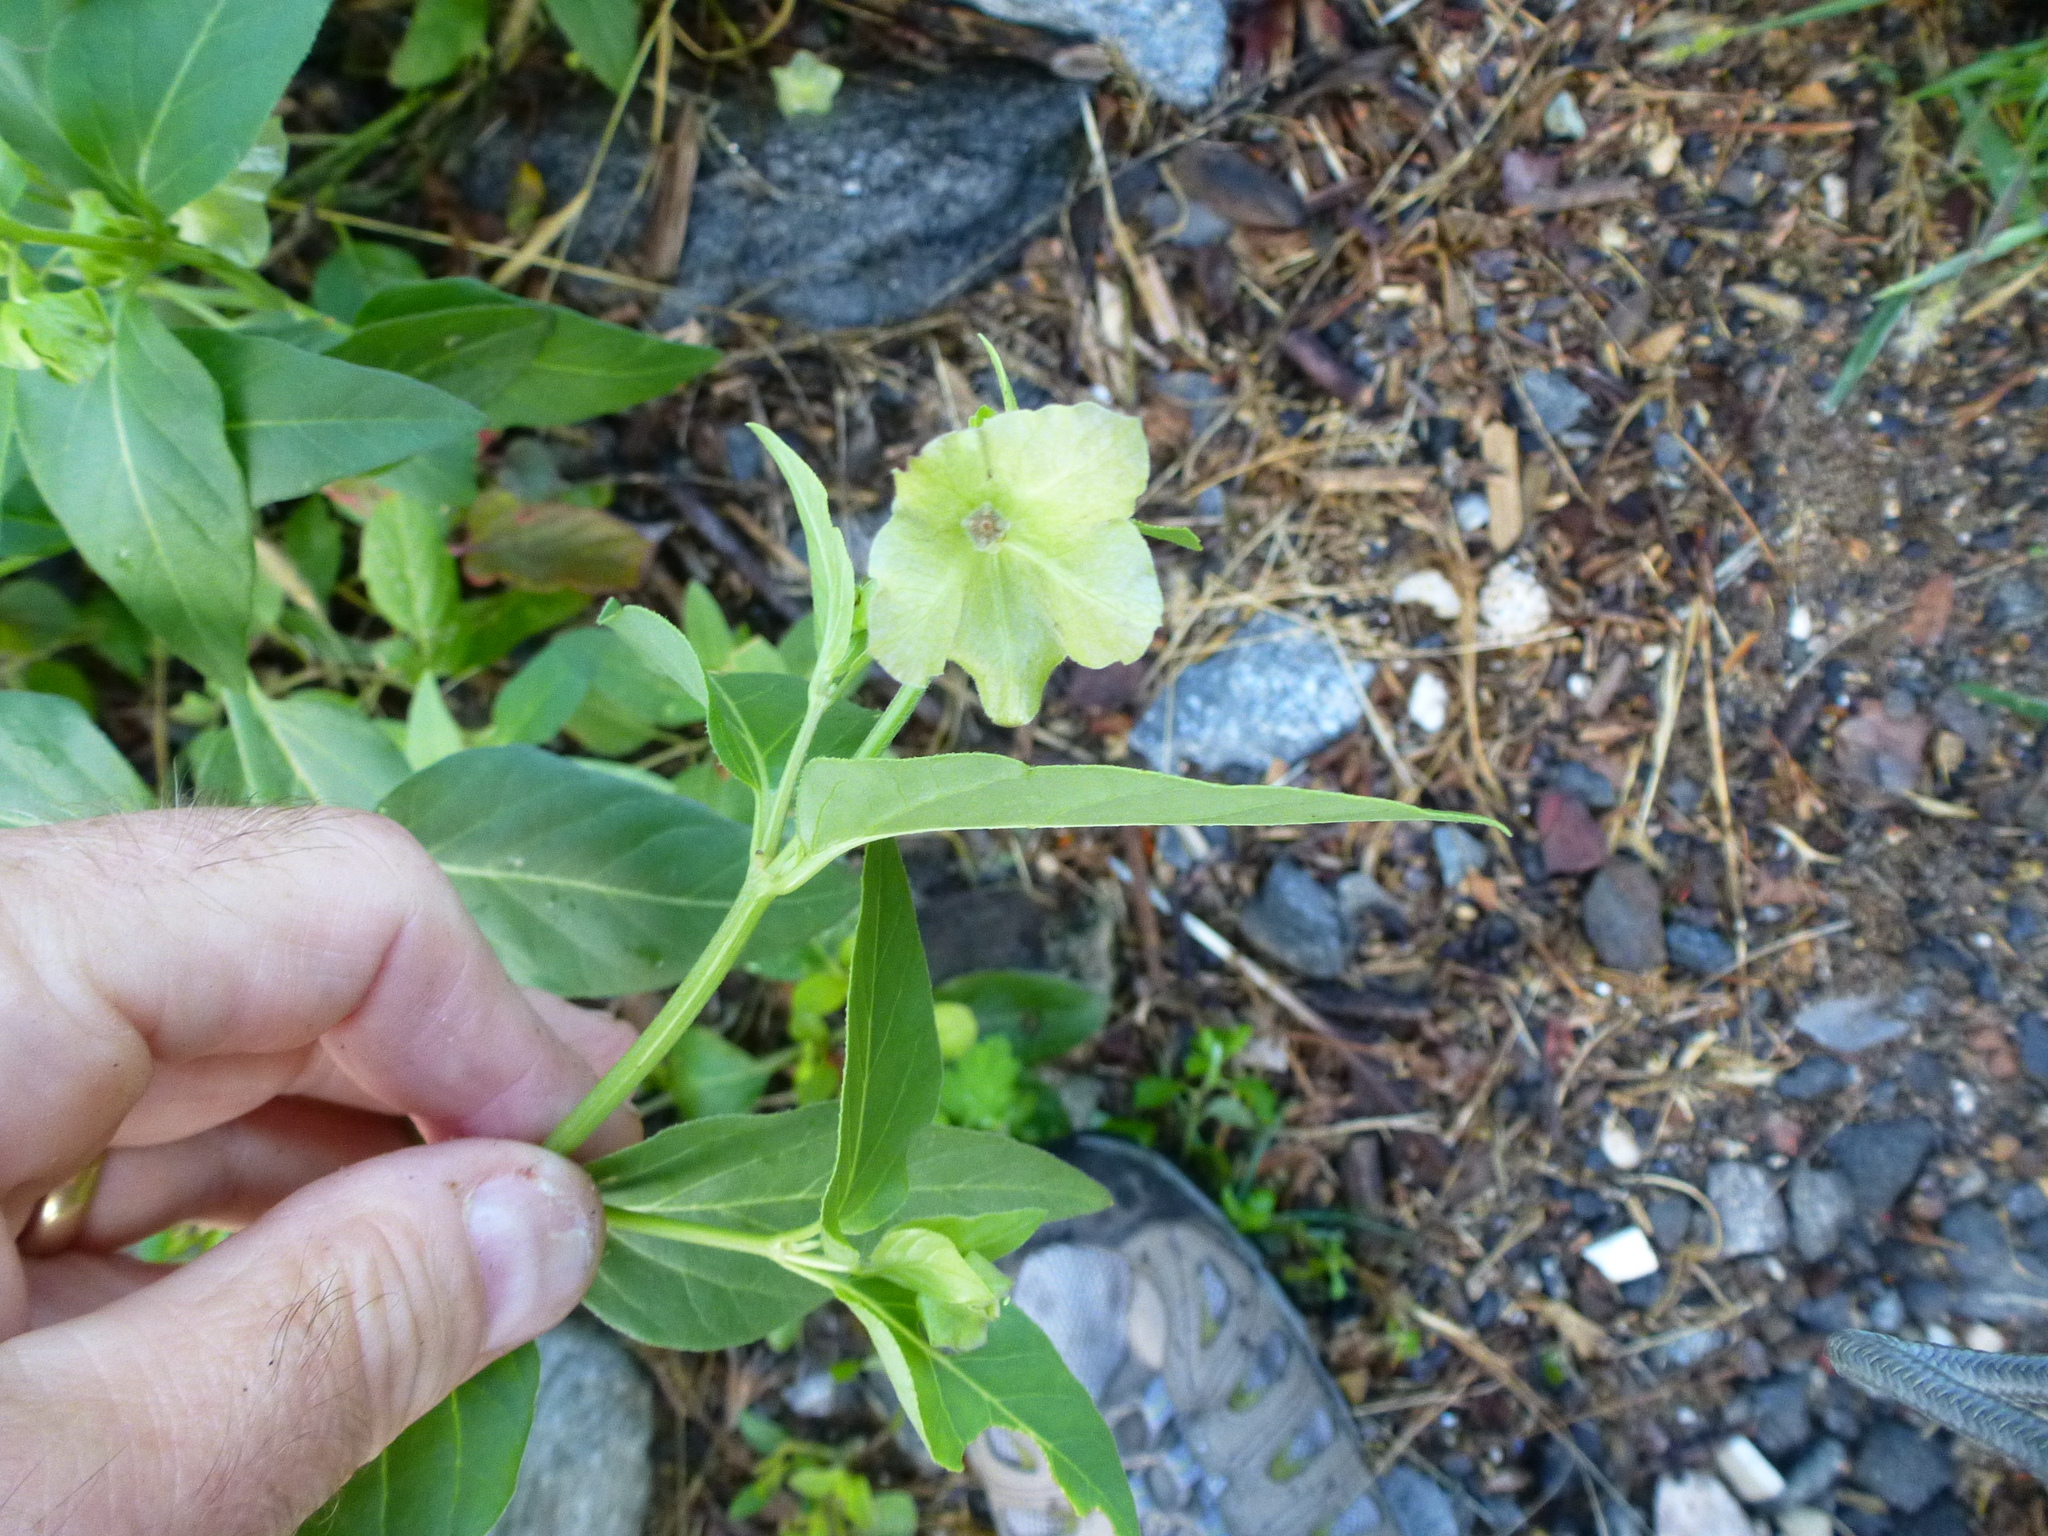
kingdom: Plantae
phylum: Tracheophyta
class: Magnoliopsida
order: Caryophyllales
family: Nyctaginaceae
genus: Mirabilis
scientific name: Mirabilis nyctaginea
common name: Umbrella wort
